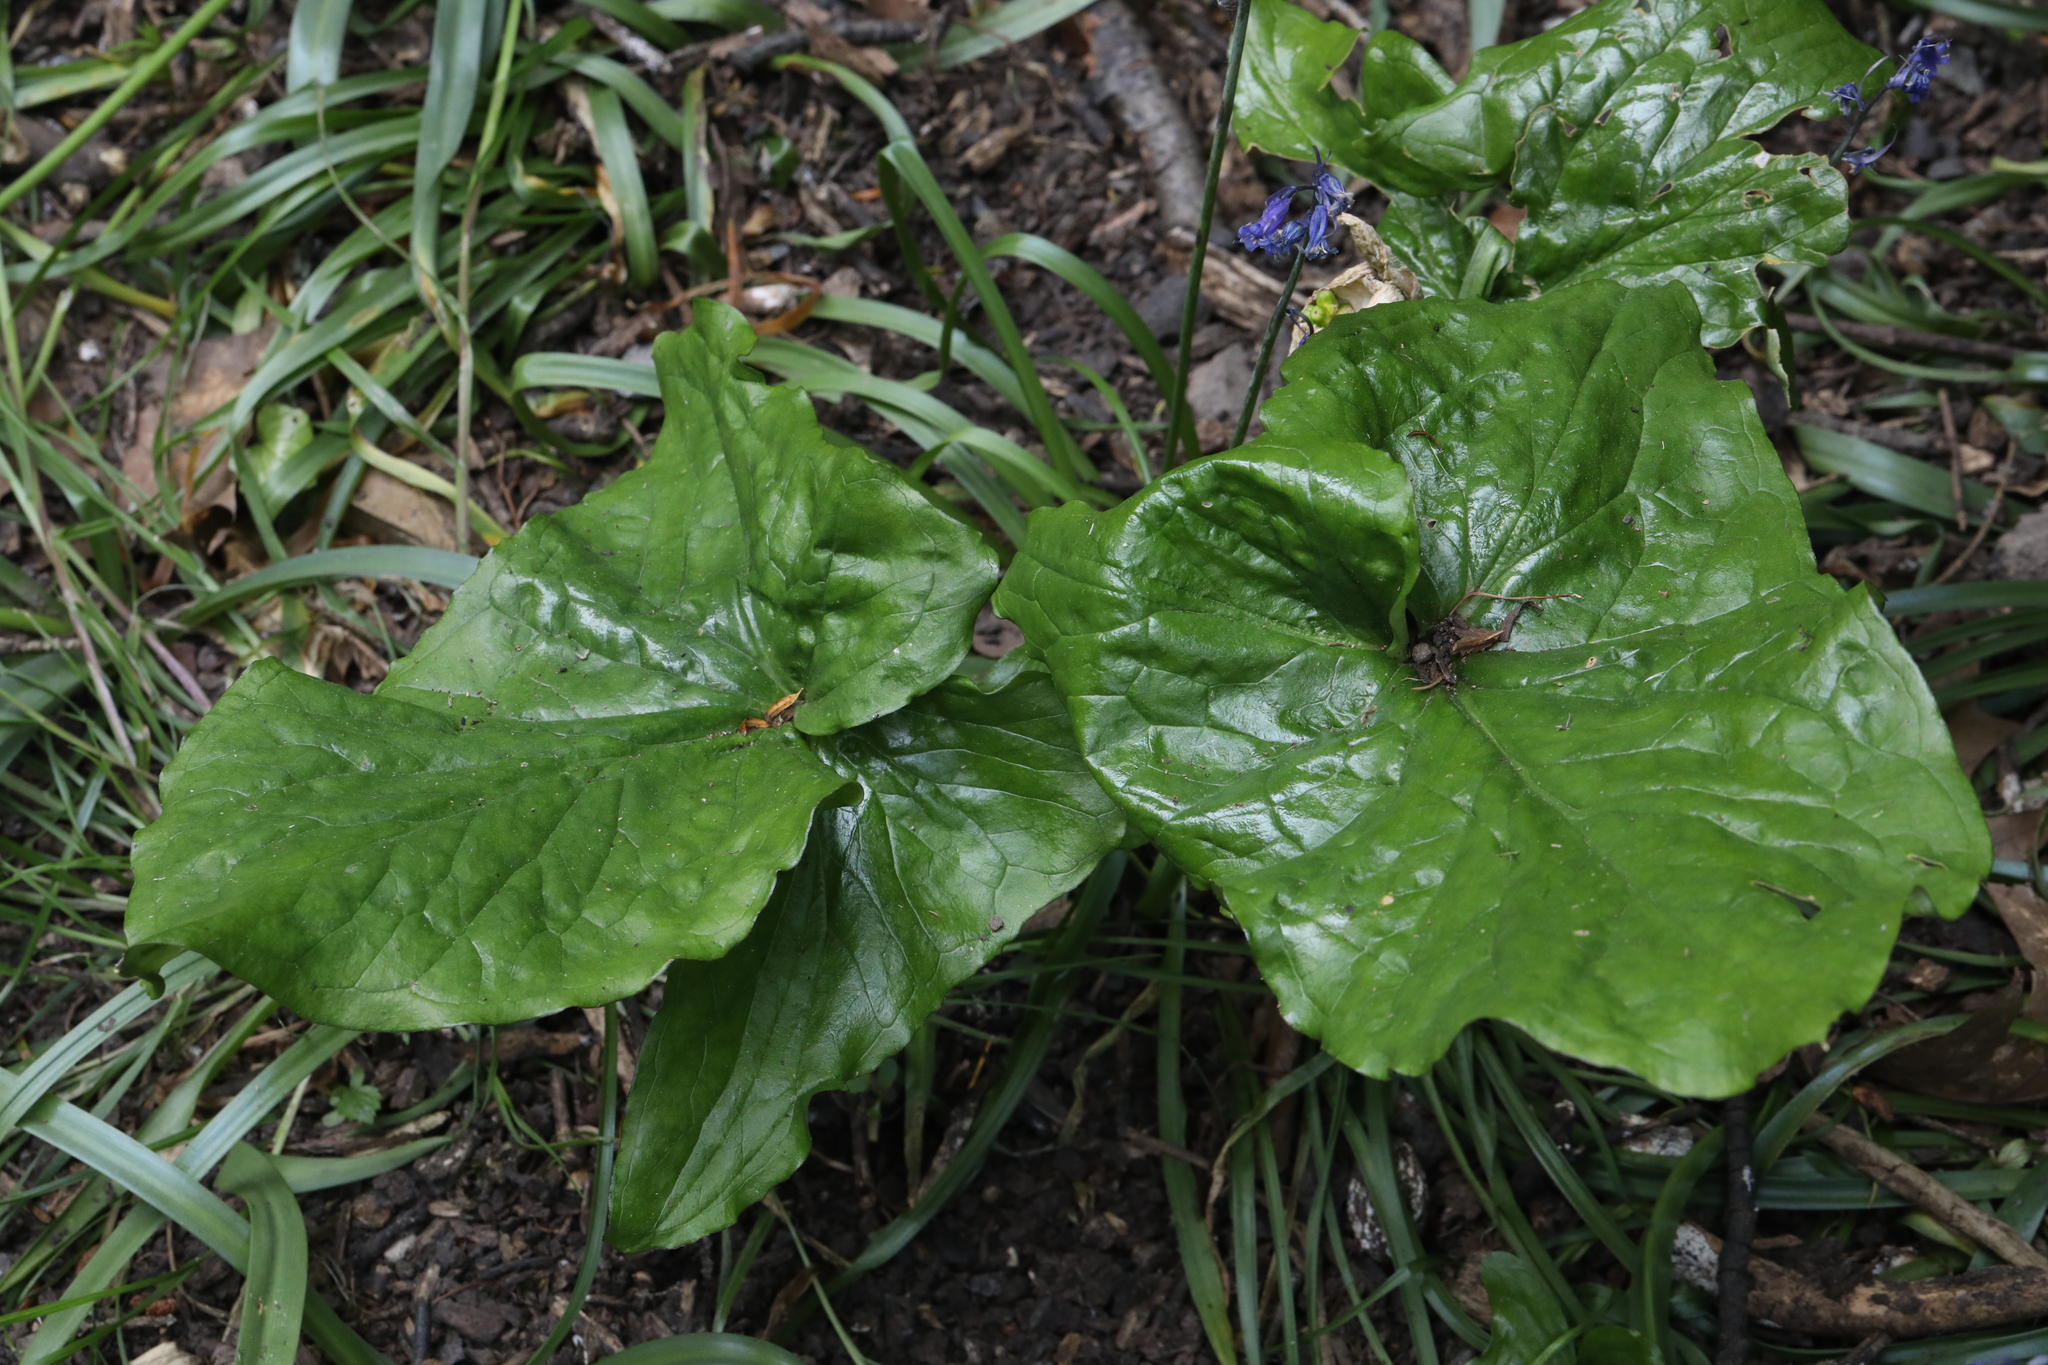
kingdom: Plantae
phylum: Tracheophyta
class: Liliopsida
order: Alismatales
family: Araceae
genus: Arum
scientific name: Arum maculatum
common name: Lords-and-ladies
